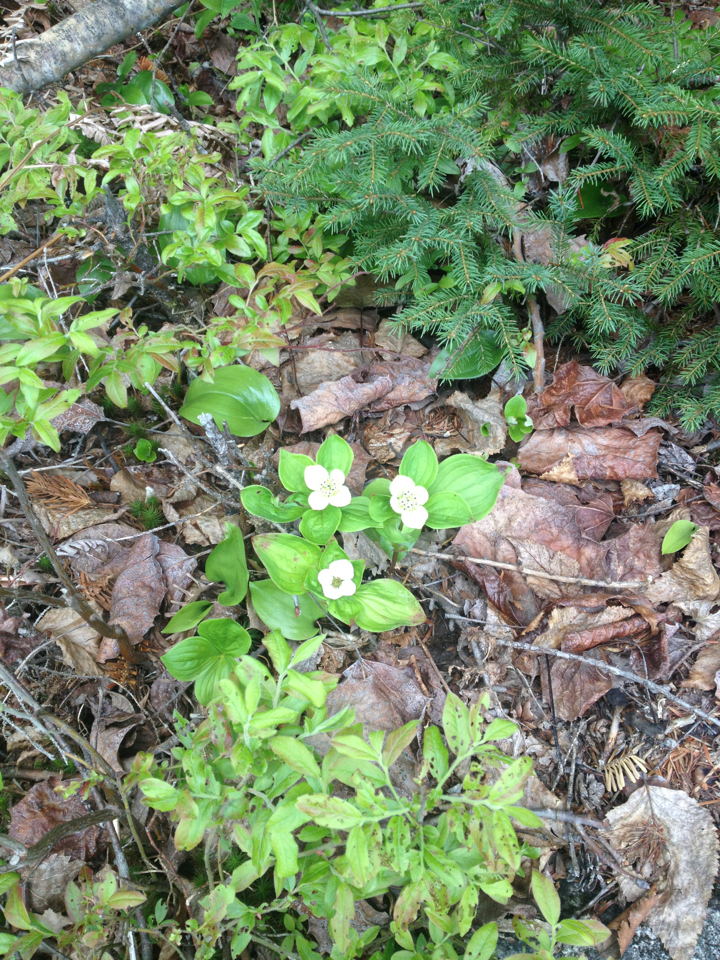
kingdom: Plantae
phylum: Tracheophyta
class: Magnoliopsida
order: Cornales
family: Cornaceae
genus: Cornus
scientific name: Cornus canadensis
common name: Creeping dogwood
